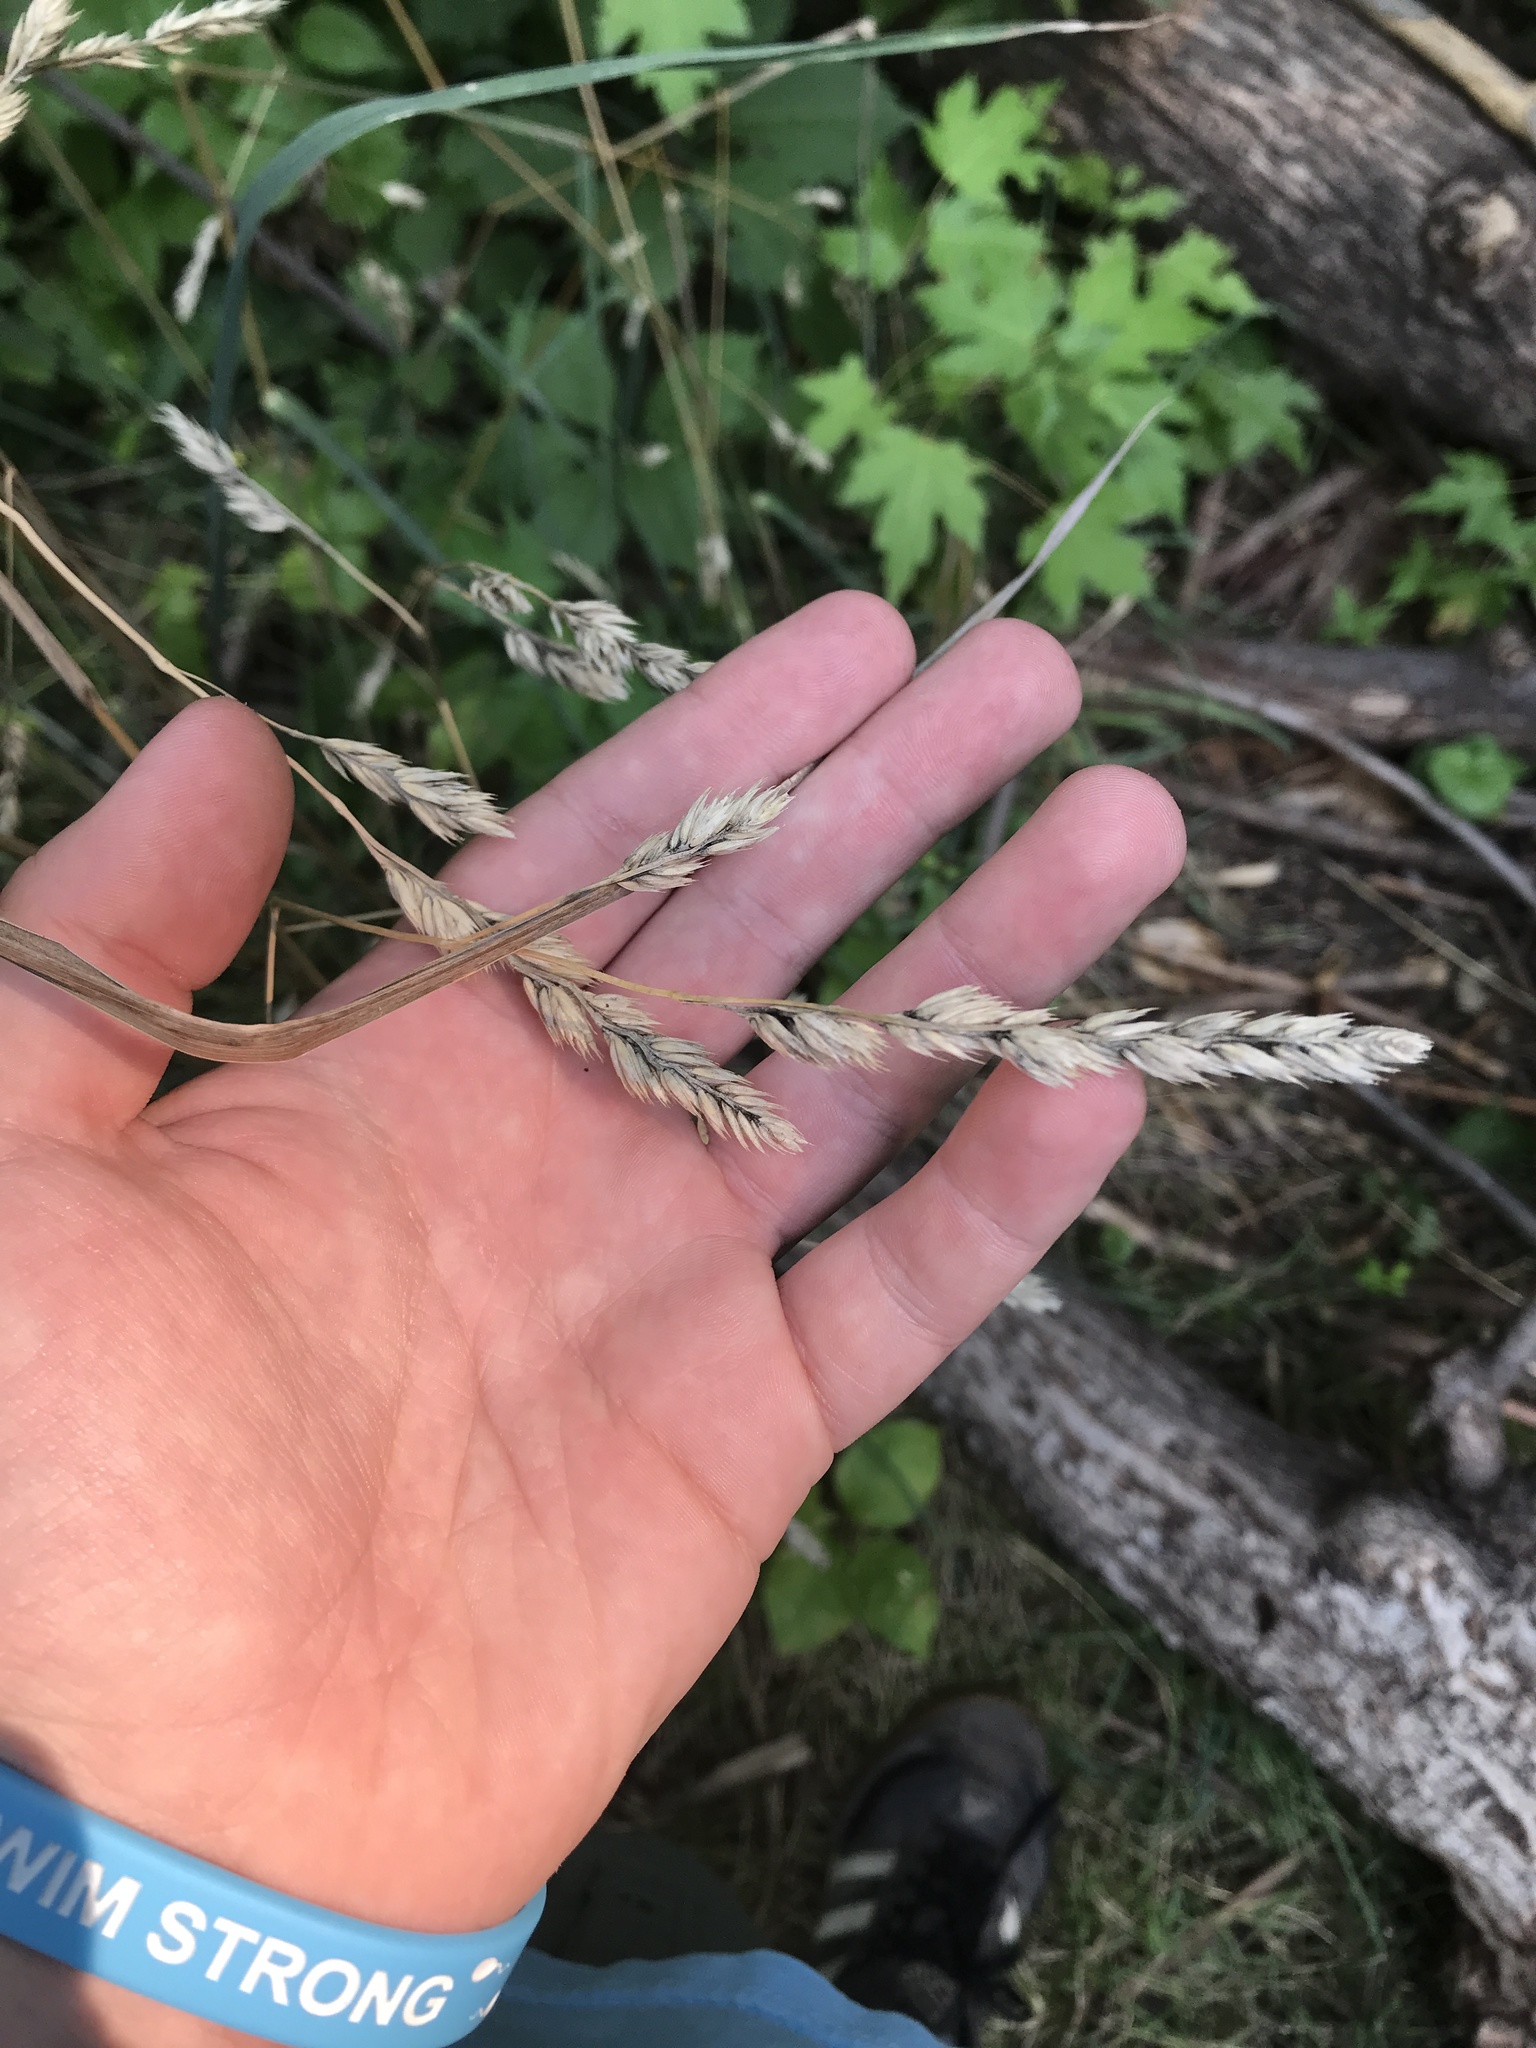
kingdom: Plantae
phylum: Tracheophyta
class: Liliopsida
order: Poales
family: Poaceae
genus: Dactylis
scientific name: Dactylis glomerata
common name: Orchardgrass
